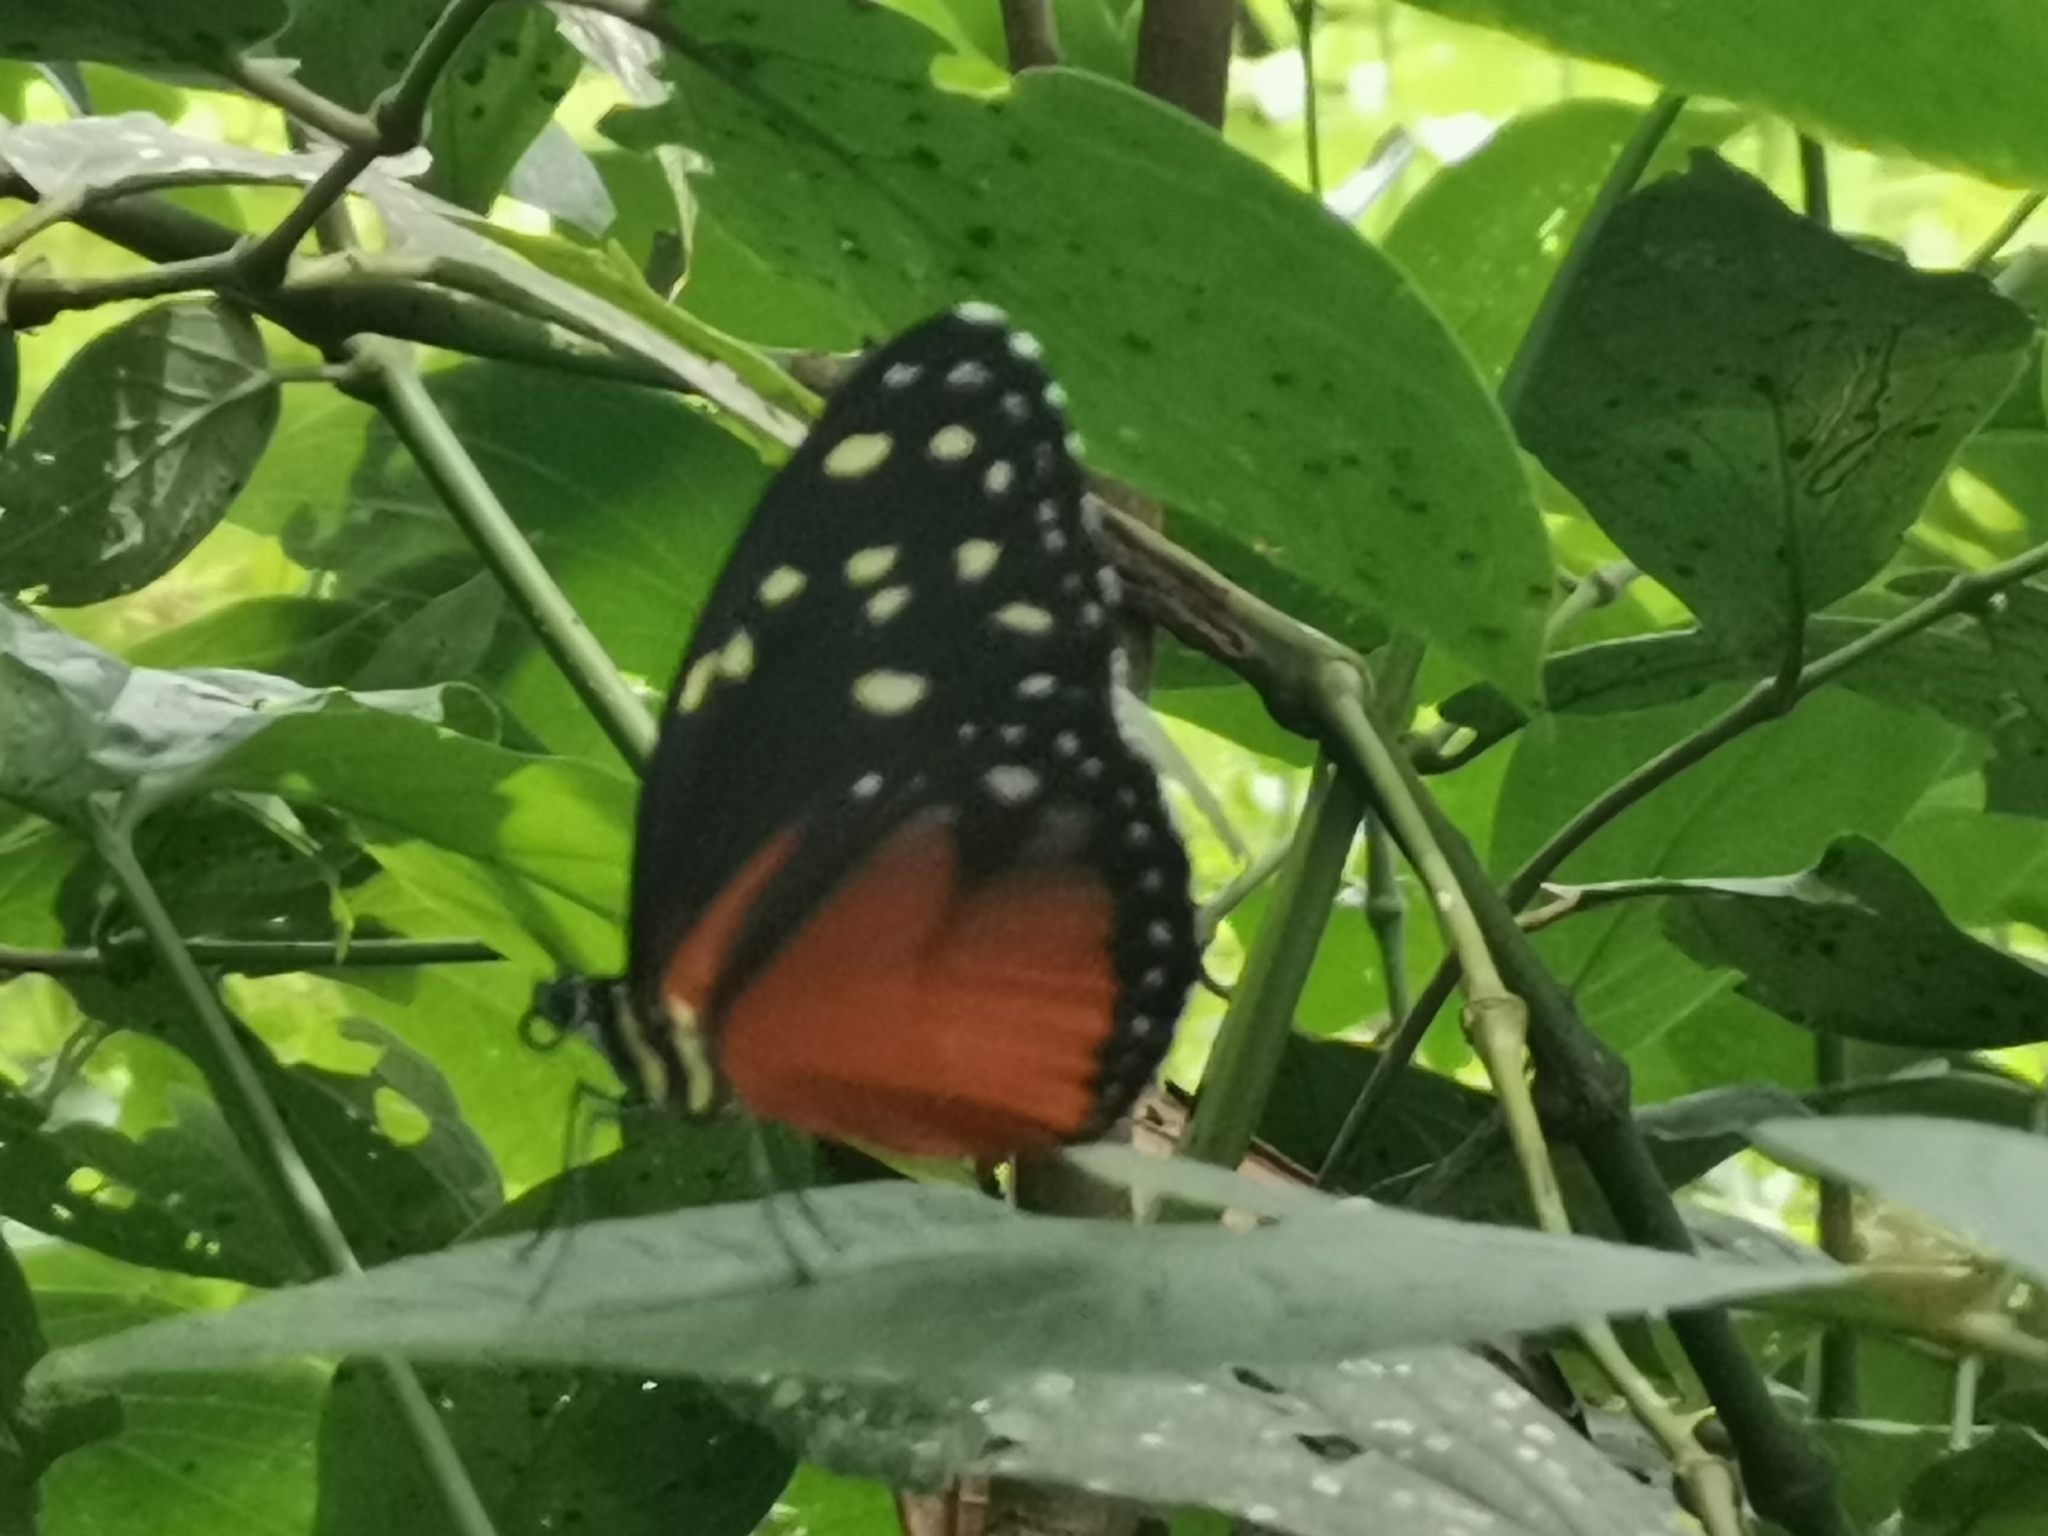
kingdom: Animalia
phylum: Arthropoda
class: Insecta
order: Lepidoptera
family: Nymphalidae
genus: Tithorea
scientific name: Tithorea tarricina
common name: Cream-spotted tigerwing
